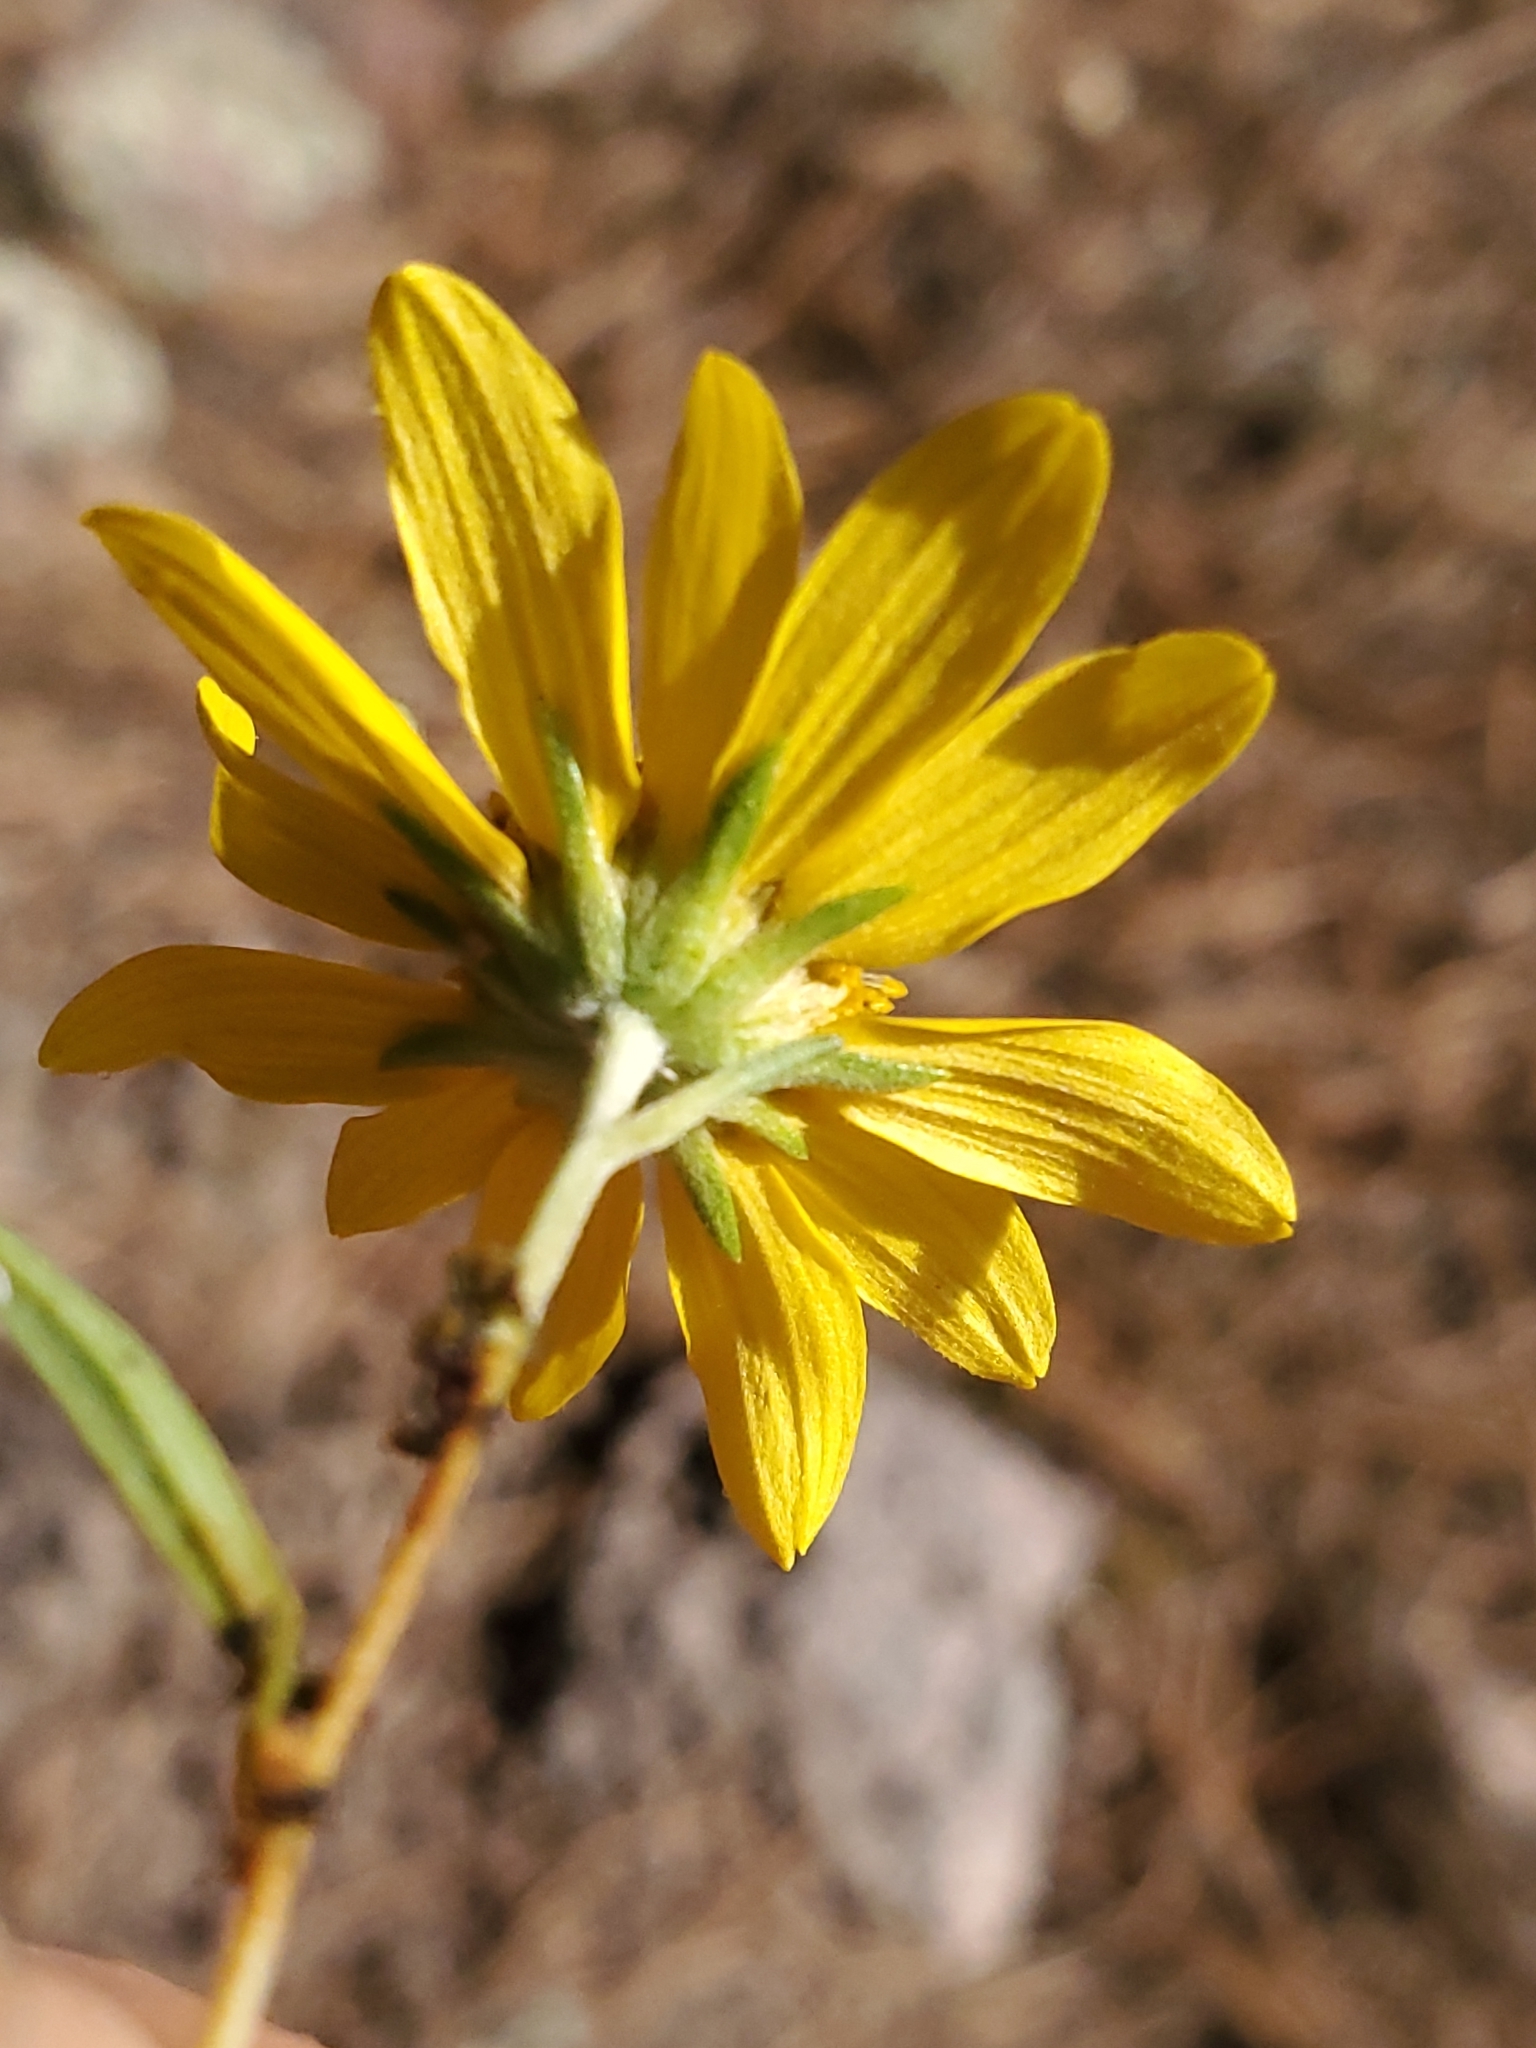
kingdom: Plantae
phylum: Tracheophyta
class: Magnoliopsida
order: Asterales
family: Asteraceae
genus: Heliomeris
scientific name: Heliomeris multiflora
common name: Showy goldeneye
